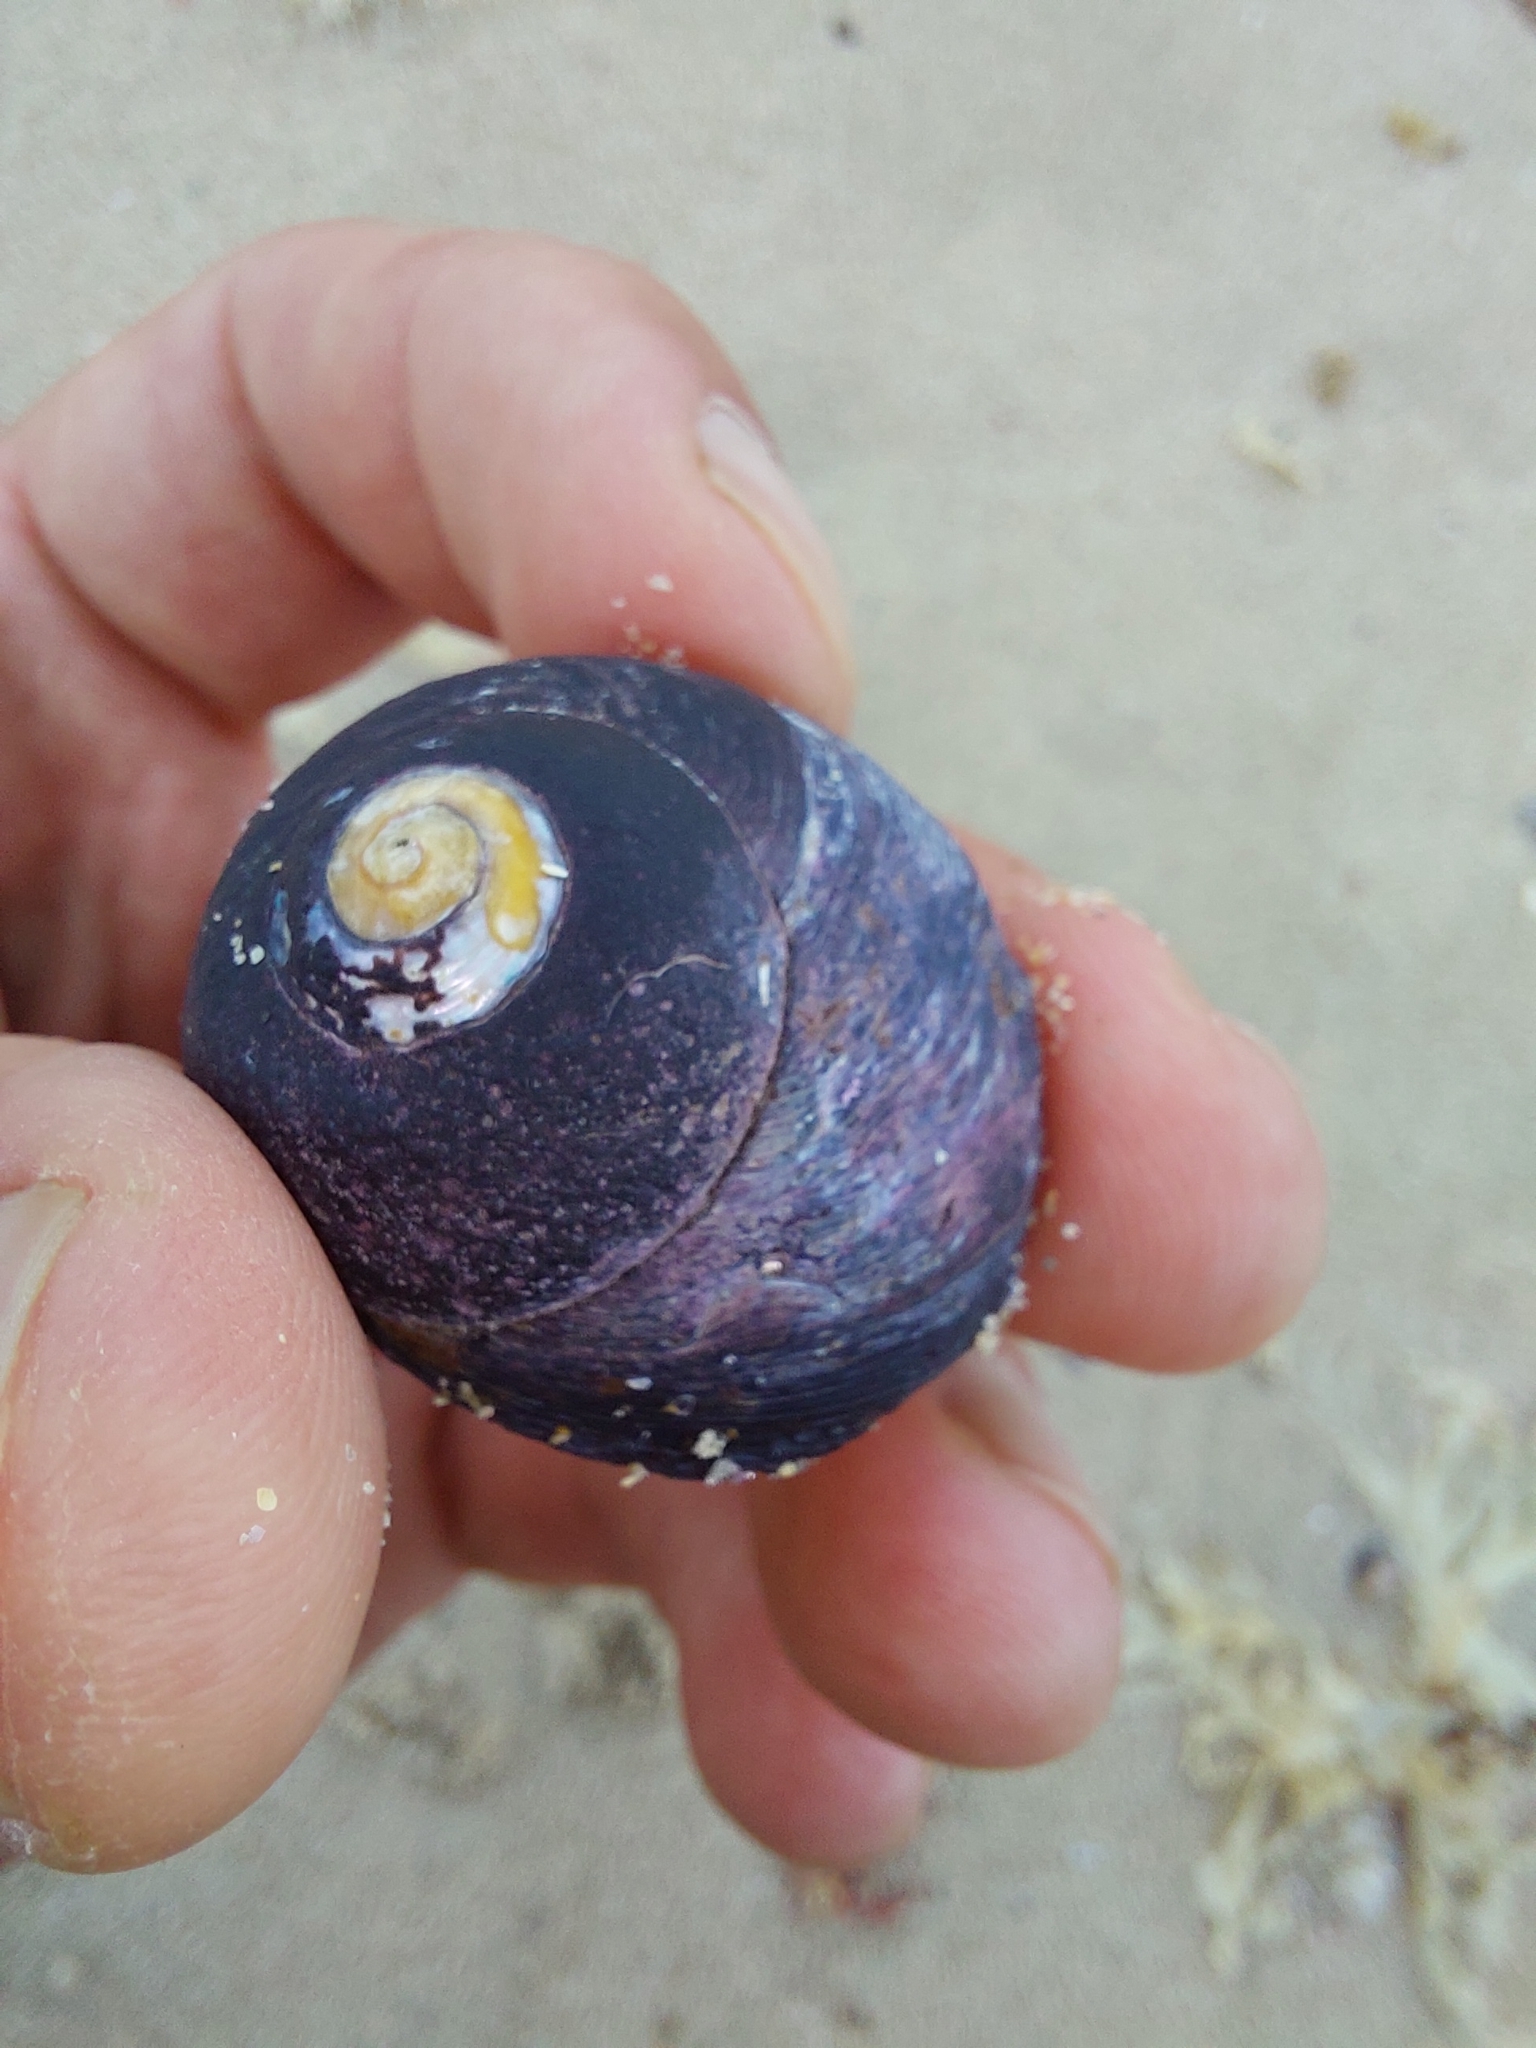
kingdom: Animalia
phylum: Mollusca
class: Gastropoda
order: Trochida
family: Trochidae
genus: Oxystele
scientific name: Oxystele sinensis
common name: Pink-lipped topshell
